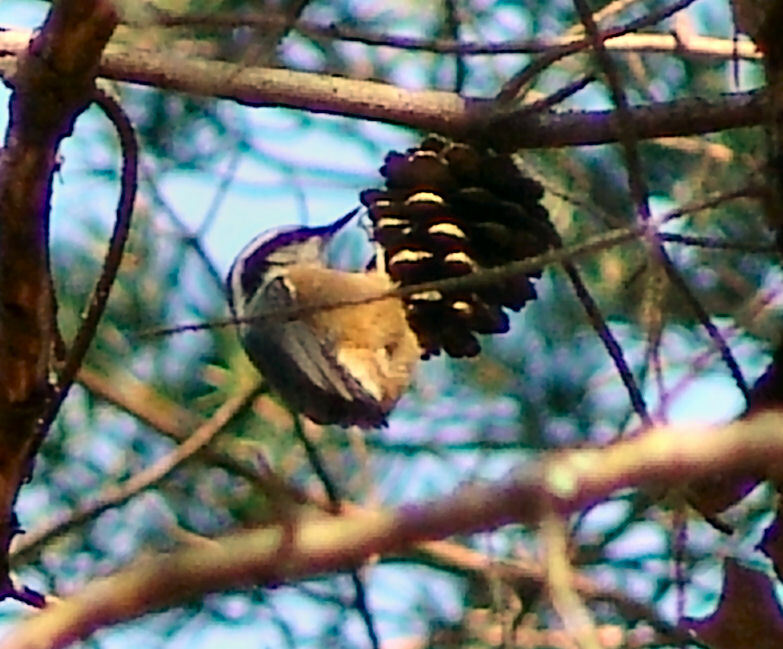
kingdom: Animalia
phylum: Chordata
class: Aves
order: Passeriformes
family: Sittidae
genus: Sitta
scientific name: Sitta canadensis
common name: Red-breasted nuthatch
